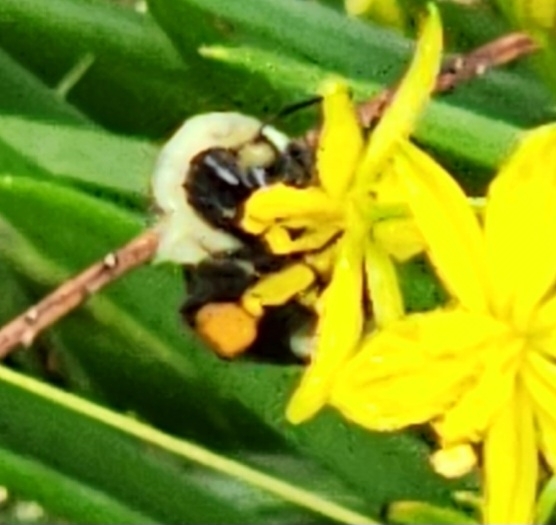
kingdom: Animalia
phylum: Arthropoda
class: Insecta
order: Hymenoptera
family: Apidae
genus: Bombus
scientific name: Bombus melanopygus
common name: Black tail bumble bee
